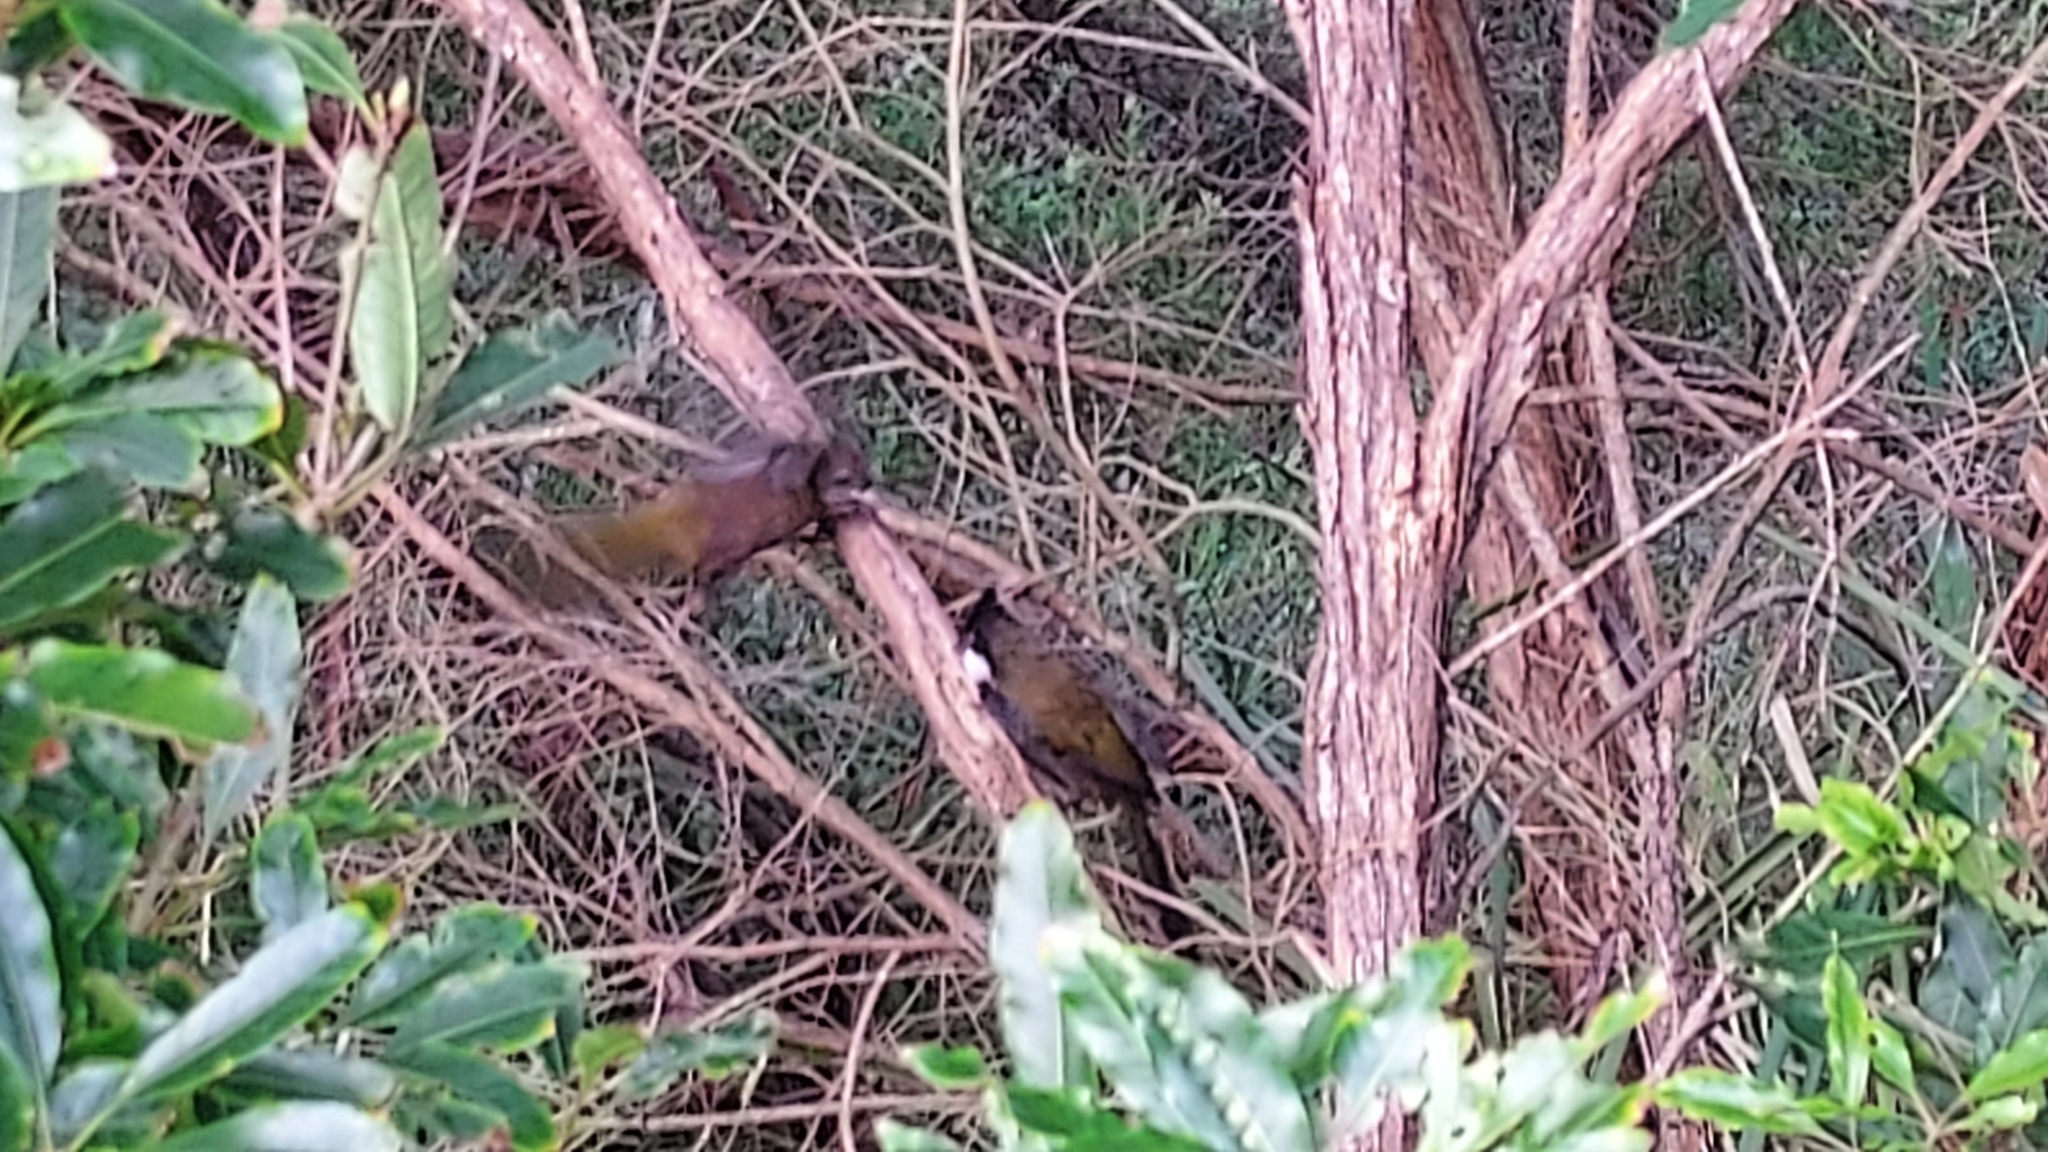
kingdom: Animalia
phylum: Chordata
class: Aves
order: Passeriformes
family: Psophodidae
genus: Psophodes
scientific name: Psophodes olivaceus
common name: Eastern whipbird
